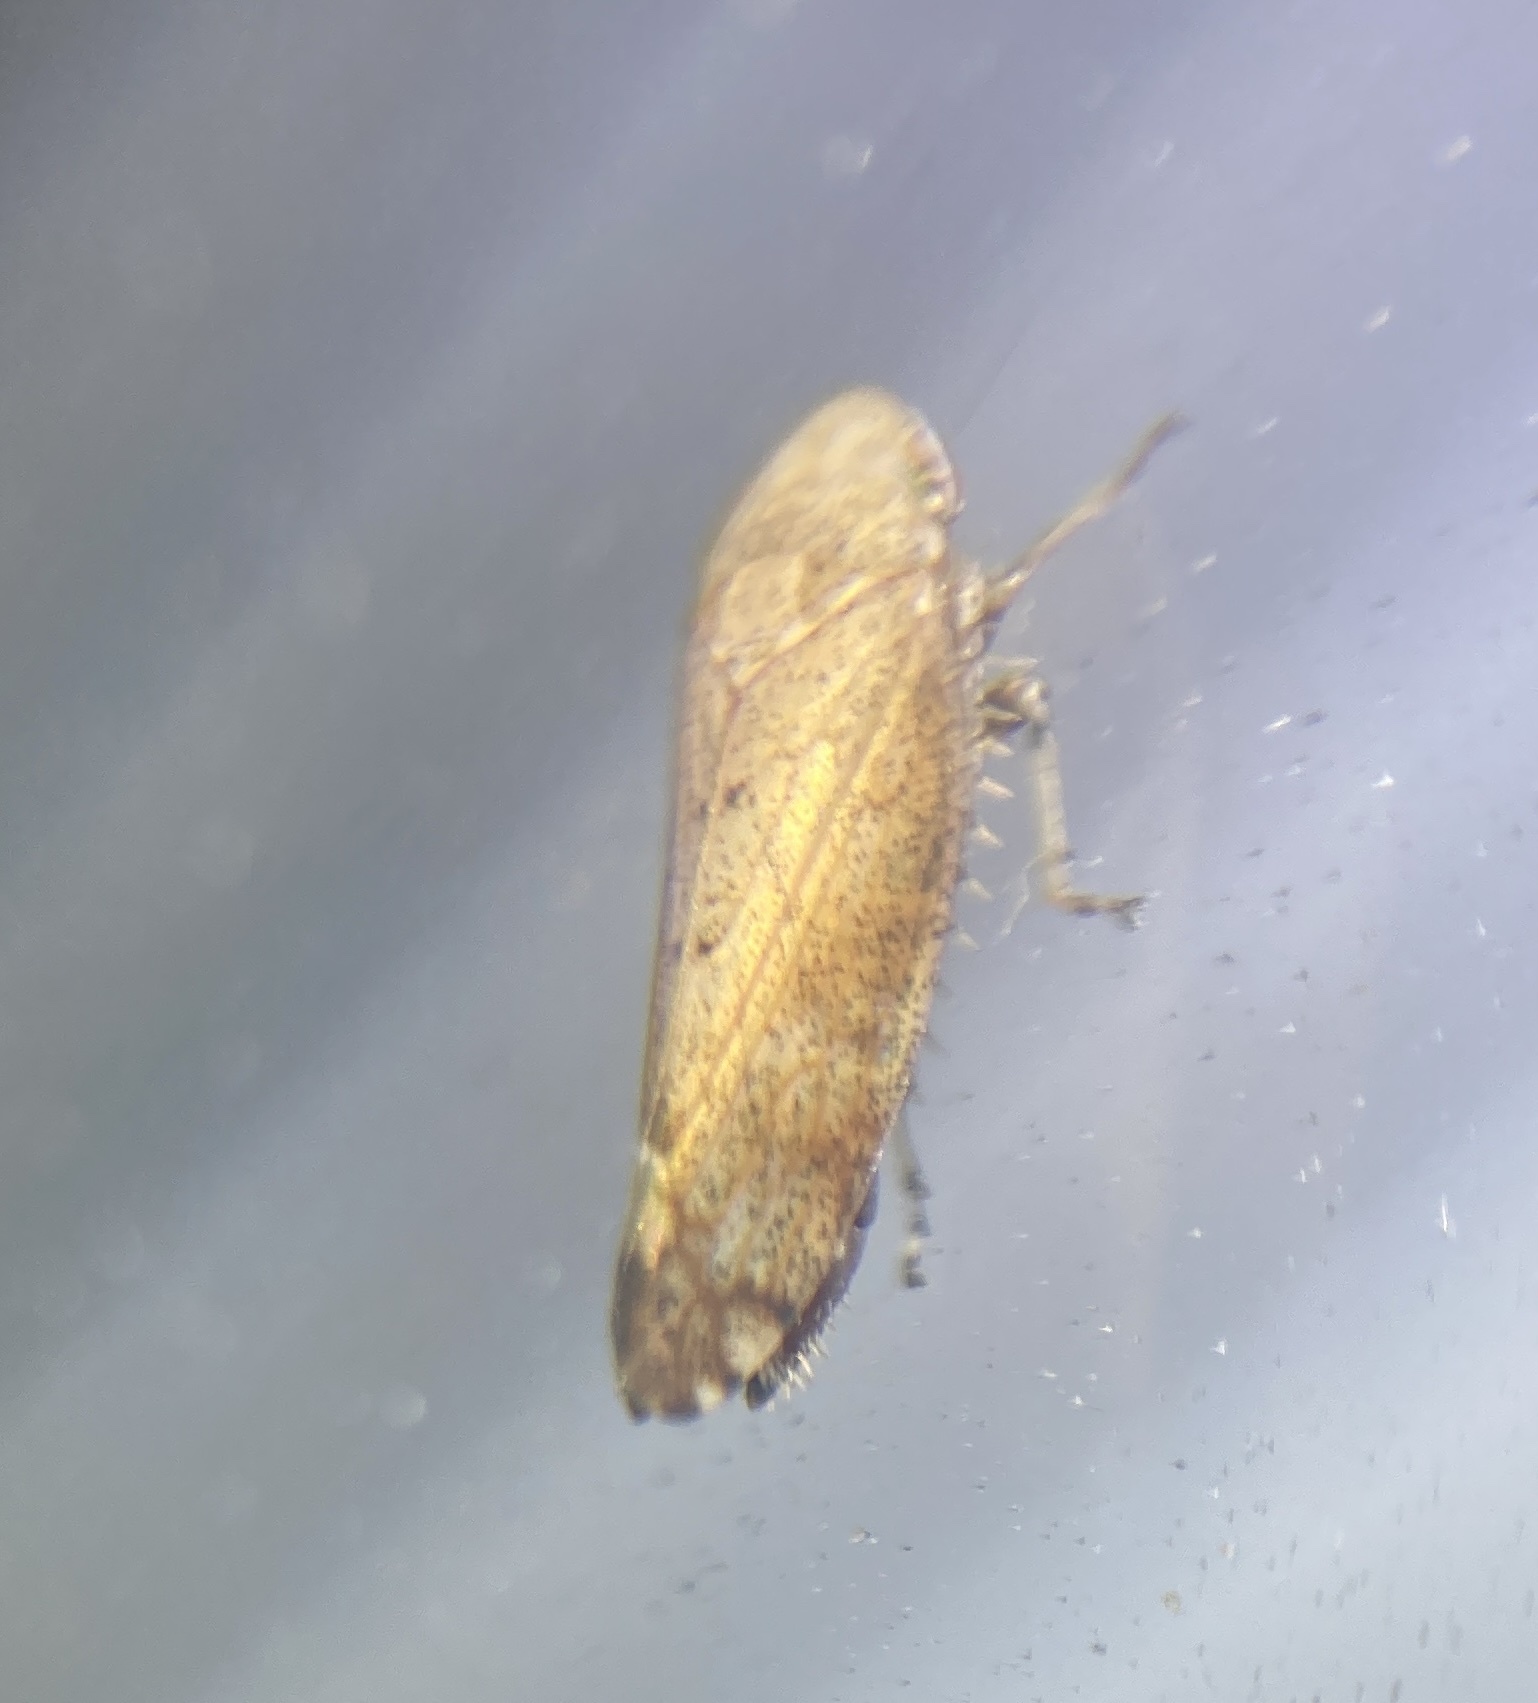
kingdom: Animalia
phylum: Arthropoda
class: Insecta
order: Hemiptera
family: Cicadellidae
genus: Fieberiella
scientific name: Fieberiella florii
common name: Flor’s leafhopper
